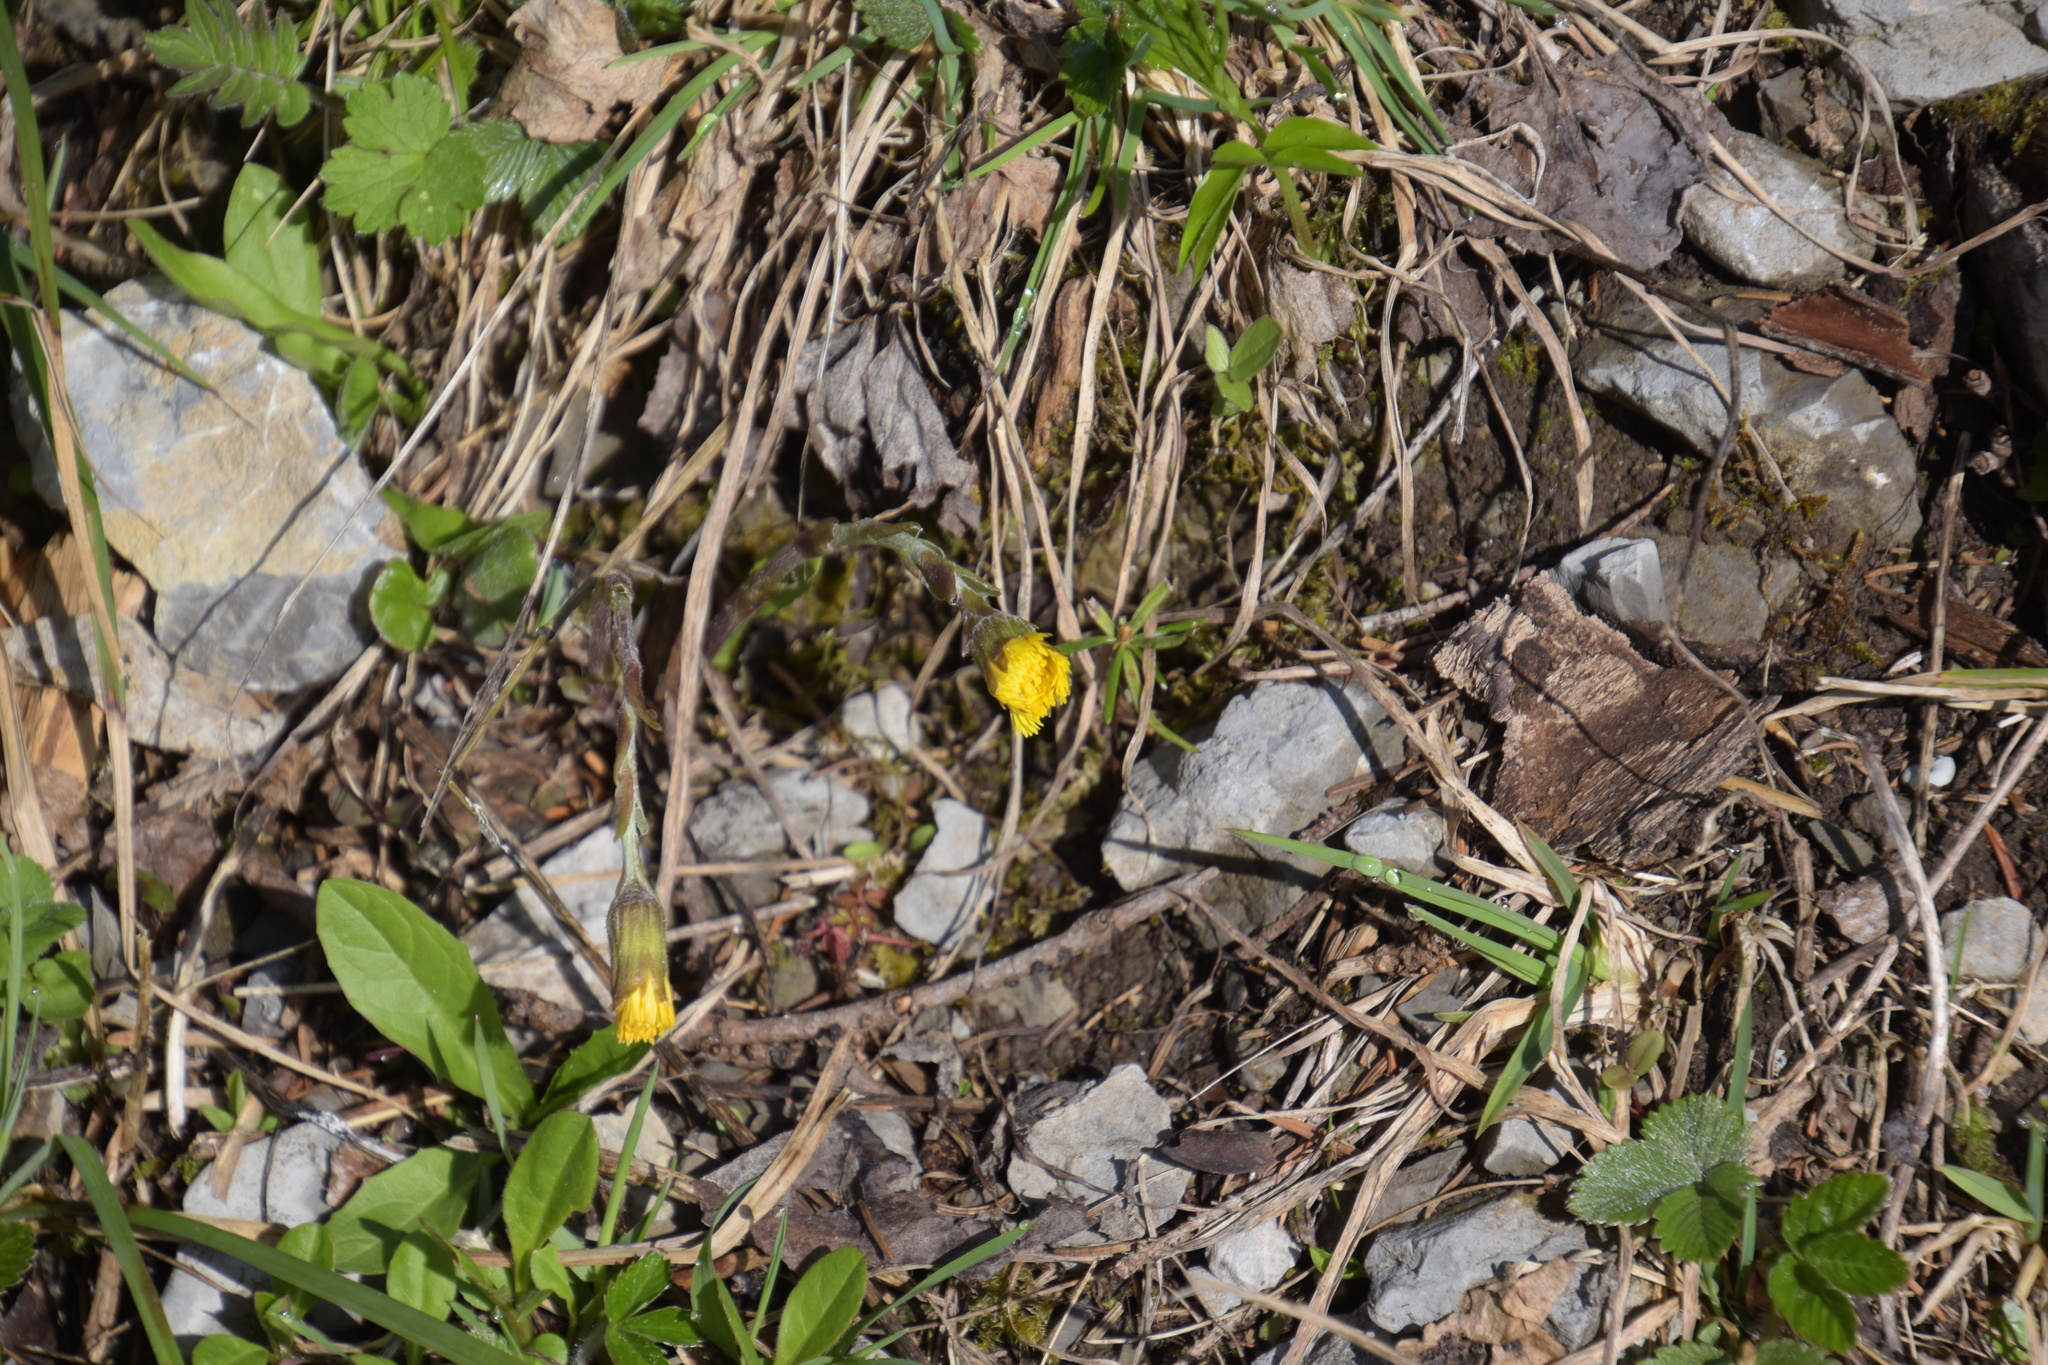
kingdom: Plantae
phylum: Tracheophyta
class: Magnoliopsida
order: Asterales
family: Asteraceae
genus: Tussilago
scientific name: Tussilago farfara
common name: Coltsfoot
